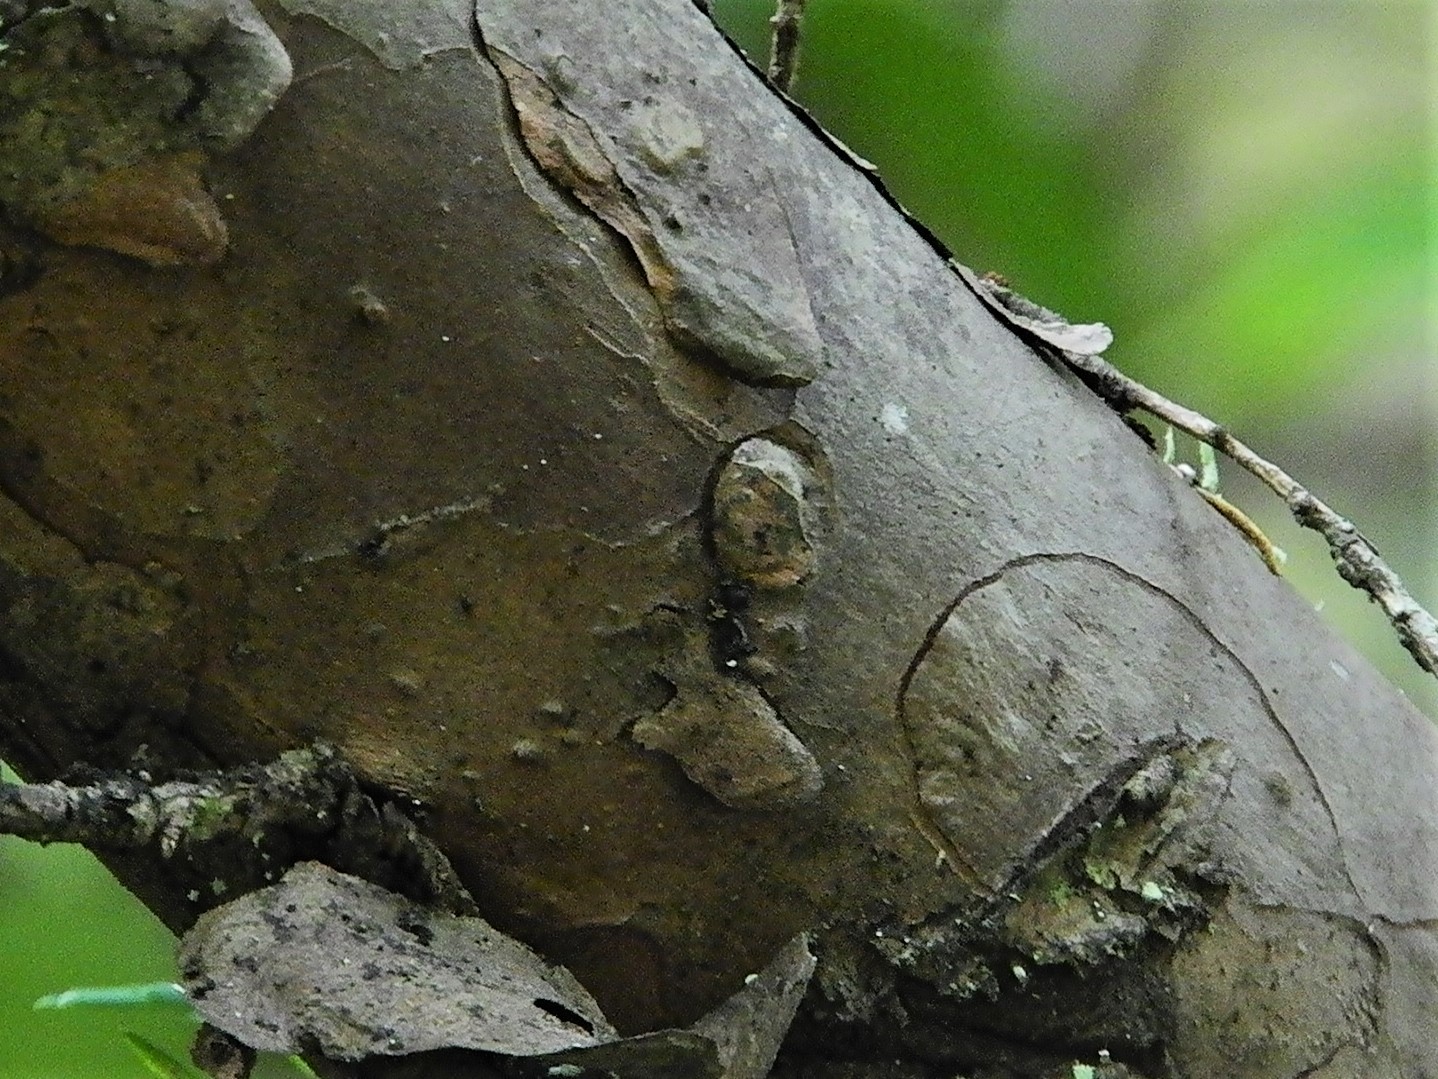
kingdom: Plantae
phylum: Tracheophyta
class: Pinopsida
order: Pinales
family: Taxaceae
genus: Taxus
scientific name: Taxus brevifolia
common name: Pacific yew
